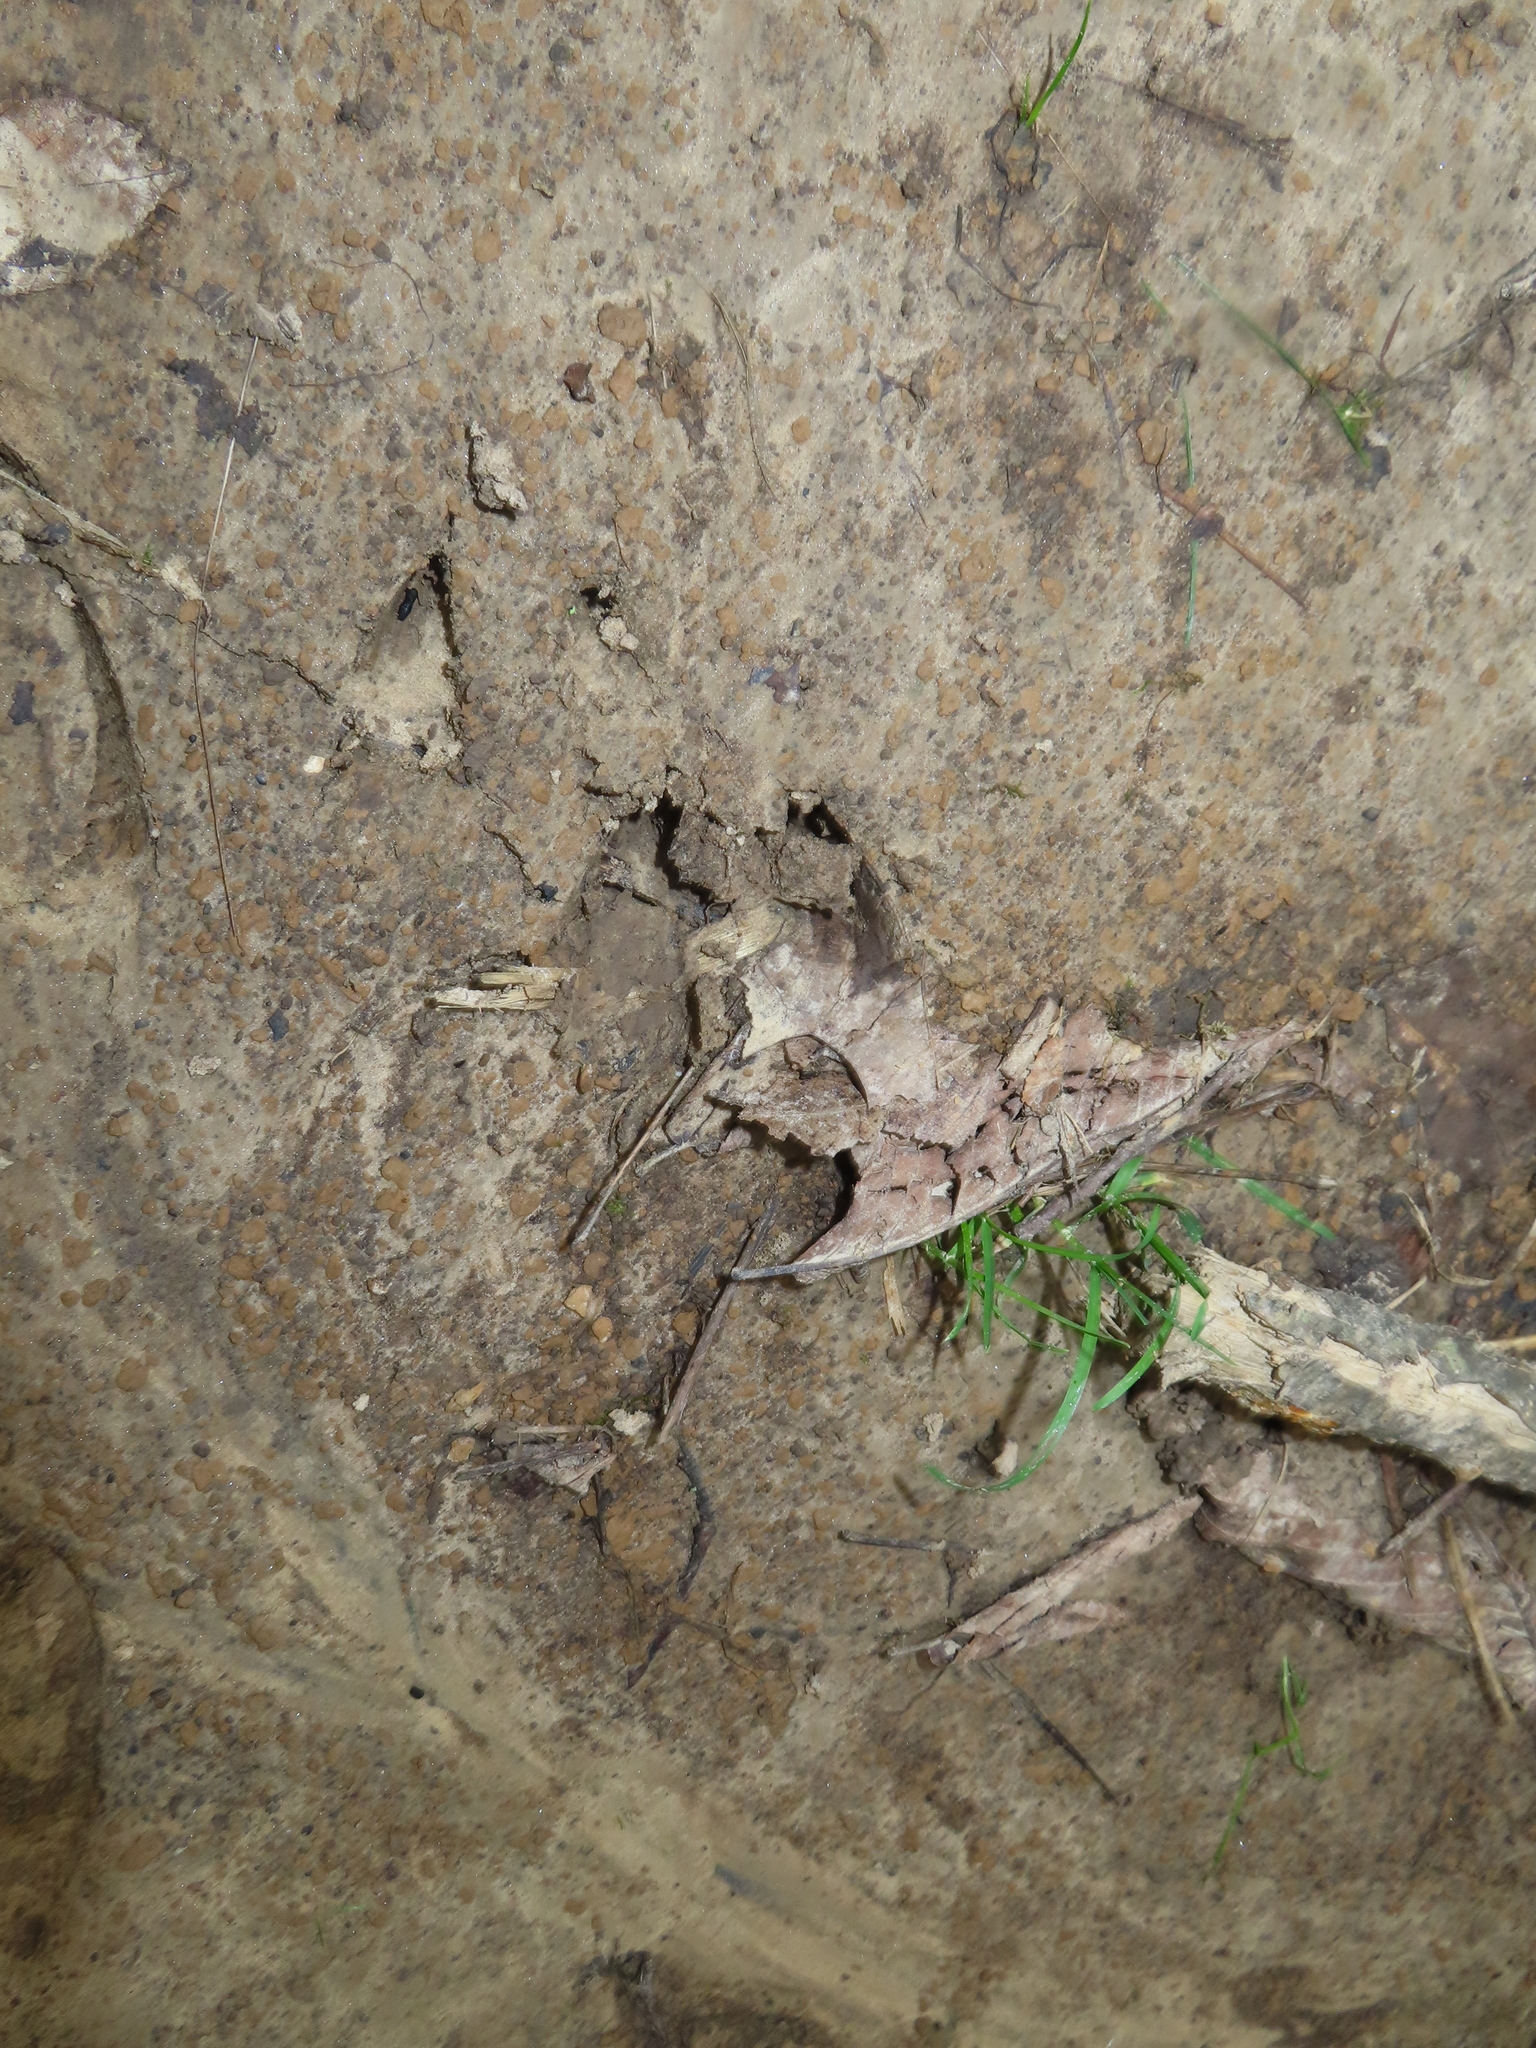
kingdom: Animalia
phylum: Chordata
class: Mammalia
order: Artiodactyla
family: Cervidae
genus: Odocoileus
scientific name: Odocoileus virginianus
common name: White-tailed deer
